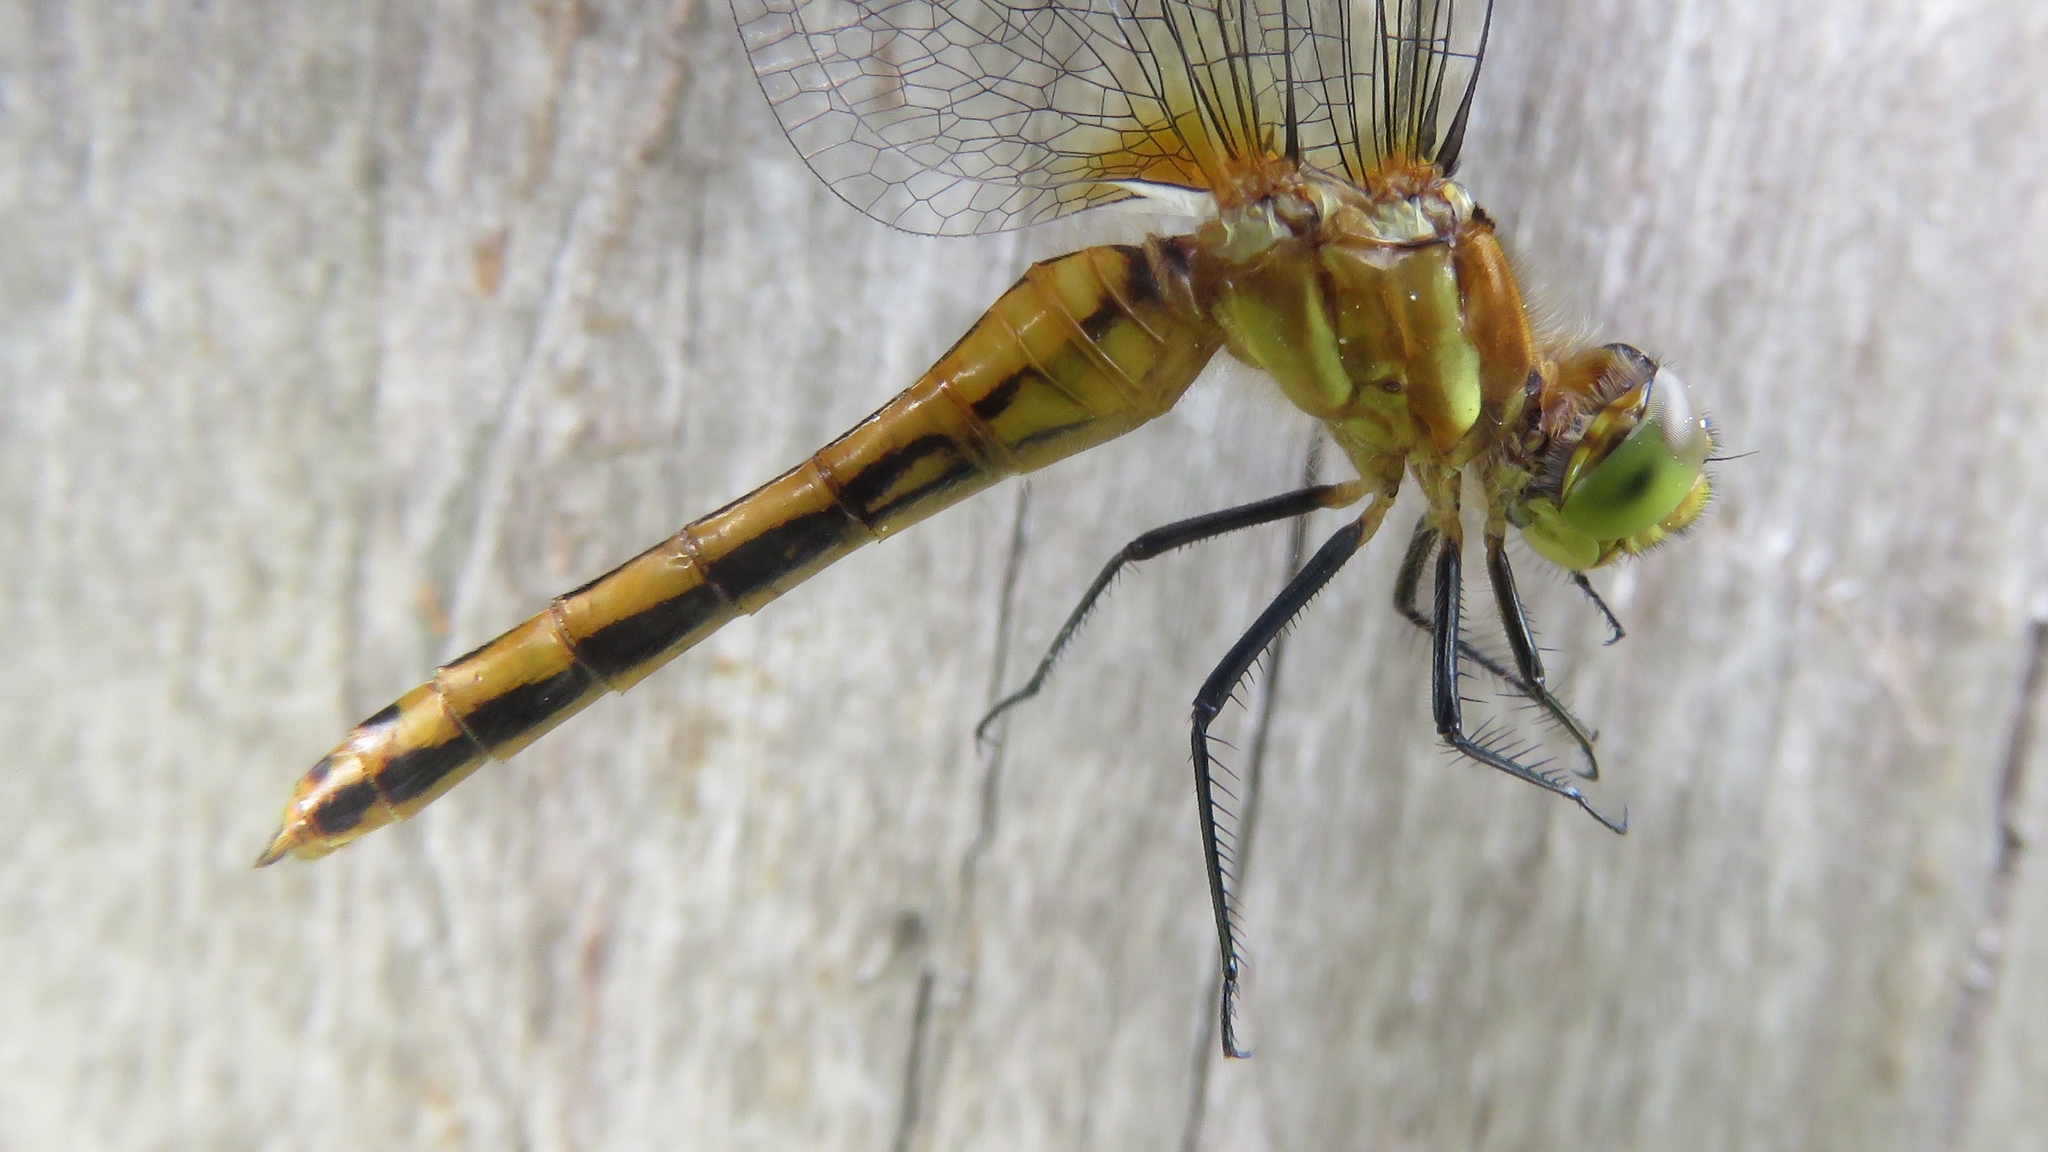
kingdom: Animalia
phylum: Arthropoda
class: Insecta
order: Odonata
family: Libellulidae
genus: Sympetrum
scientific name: Sympetrum internum
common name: Cherry-faced meadowhawk
